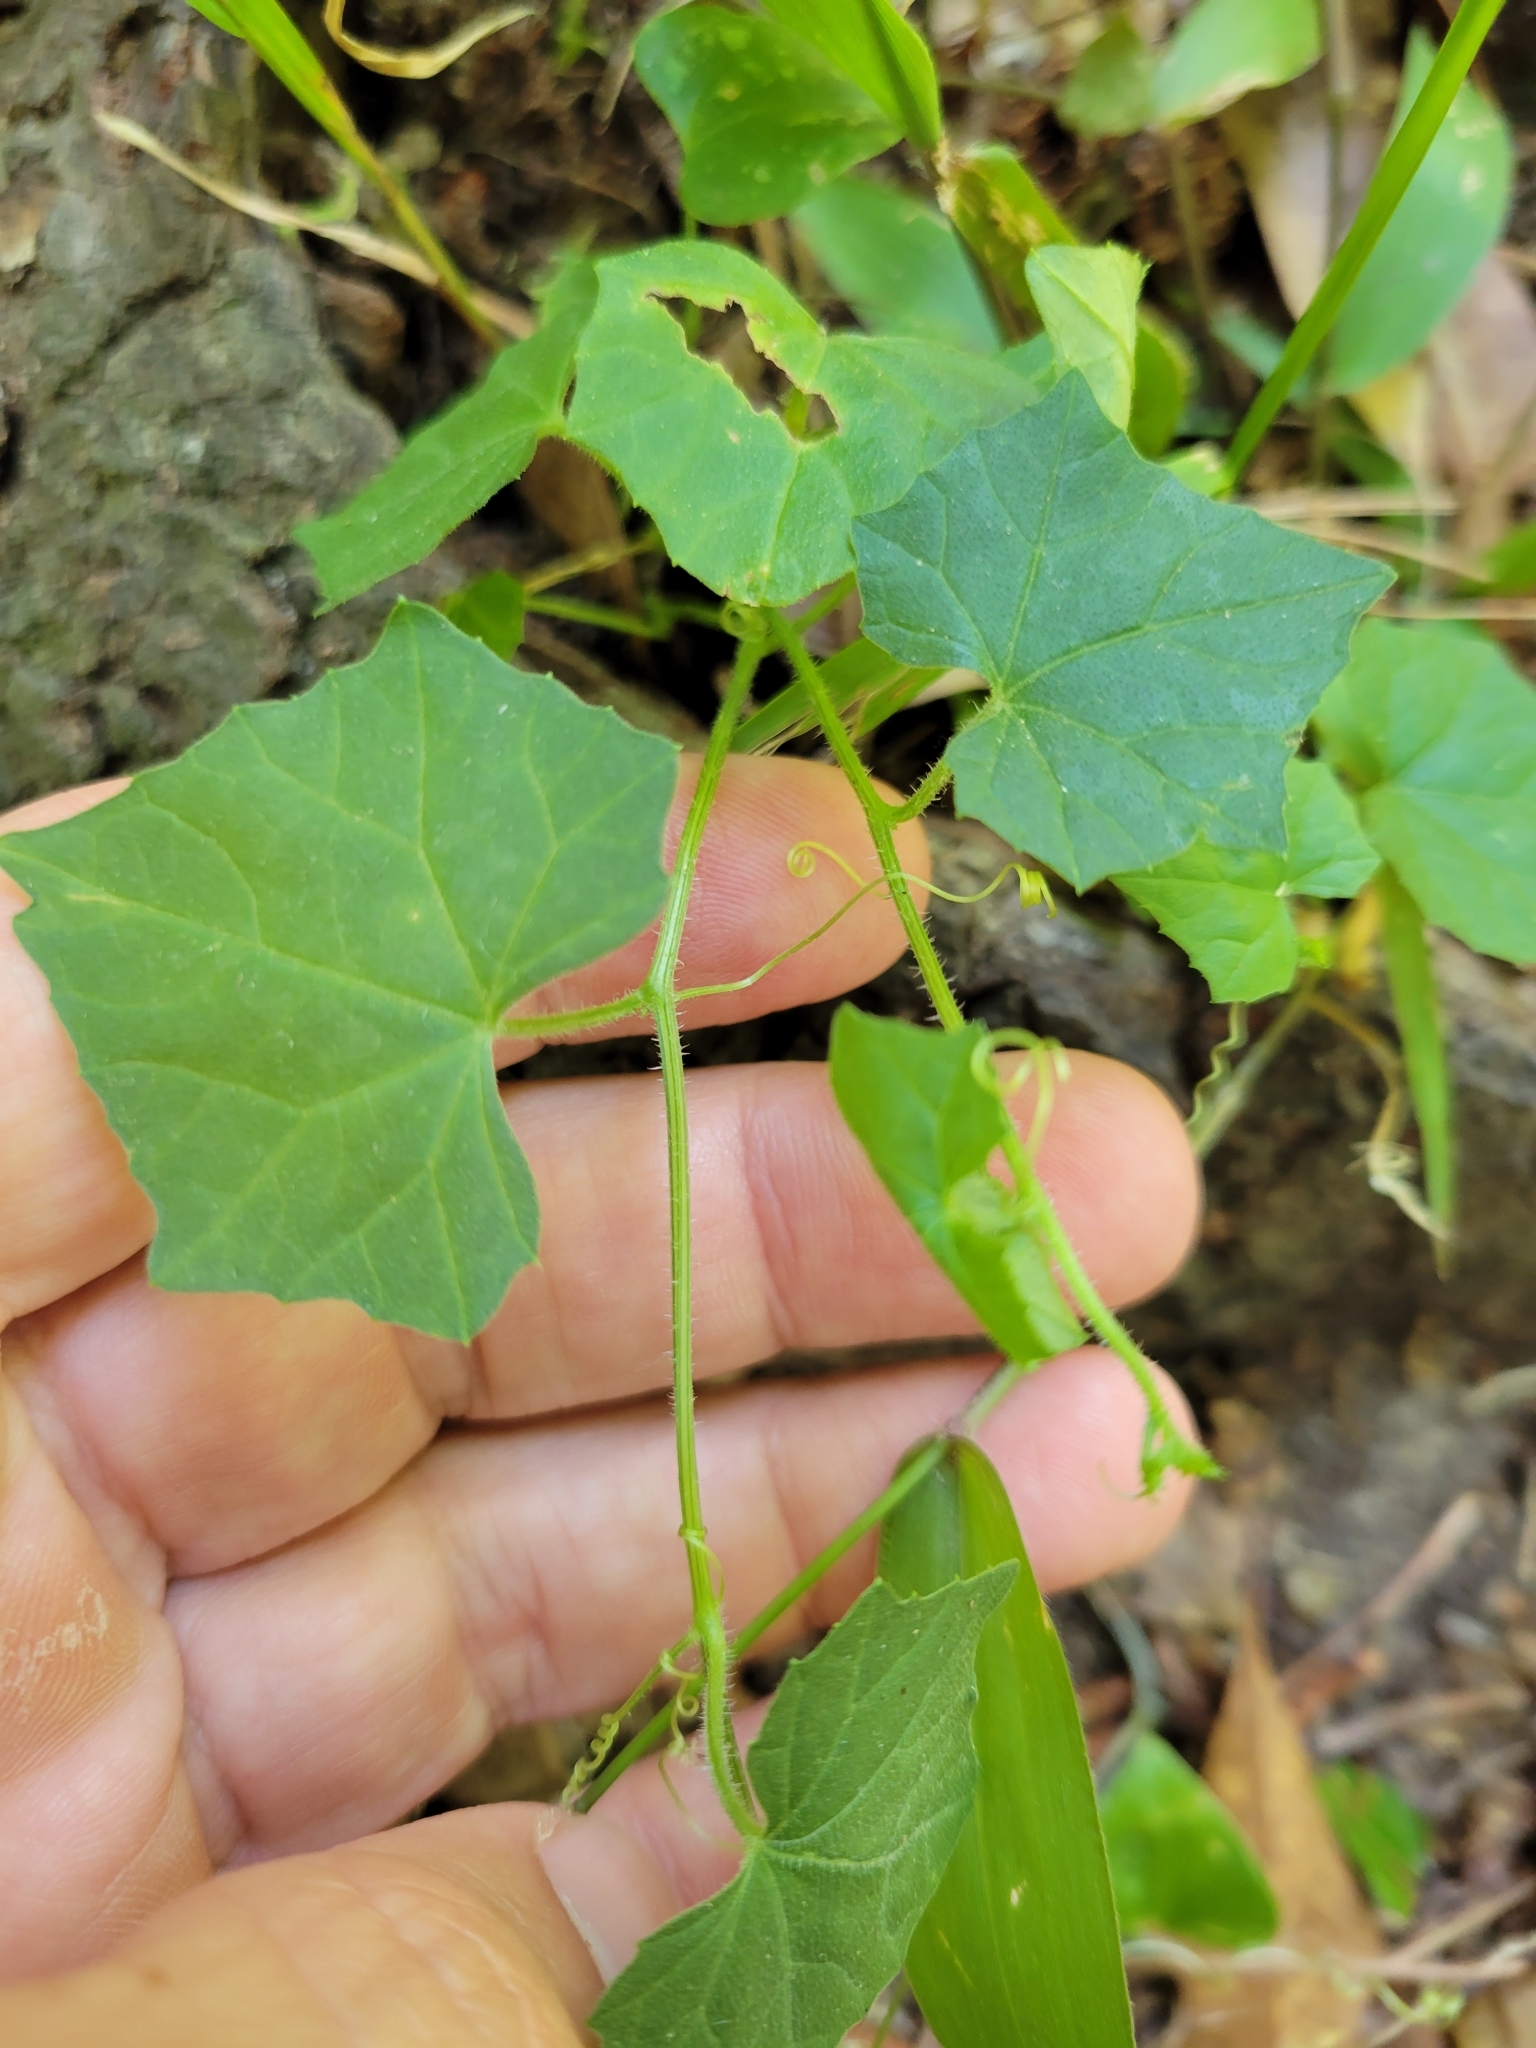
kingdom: Plantae
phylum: Tracheophyta
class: Magnoliopsida
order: Cucurbitales
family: Cucurbitaceae
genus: Melothria
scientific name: Melothria pendula
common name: Creeping-cucumber
